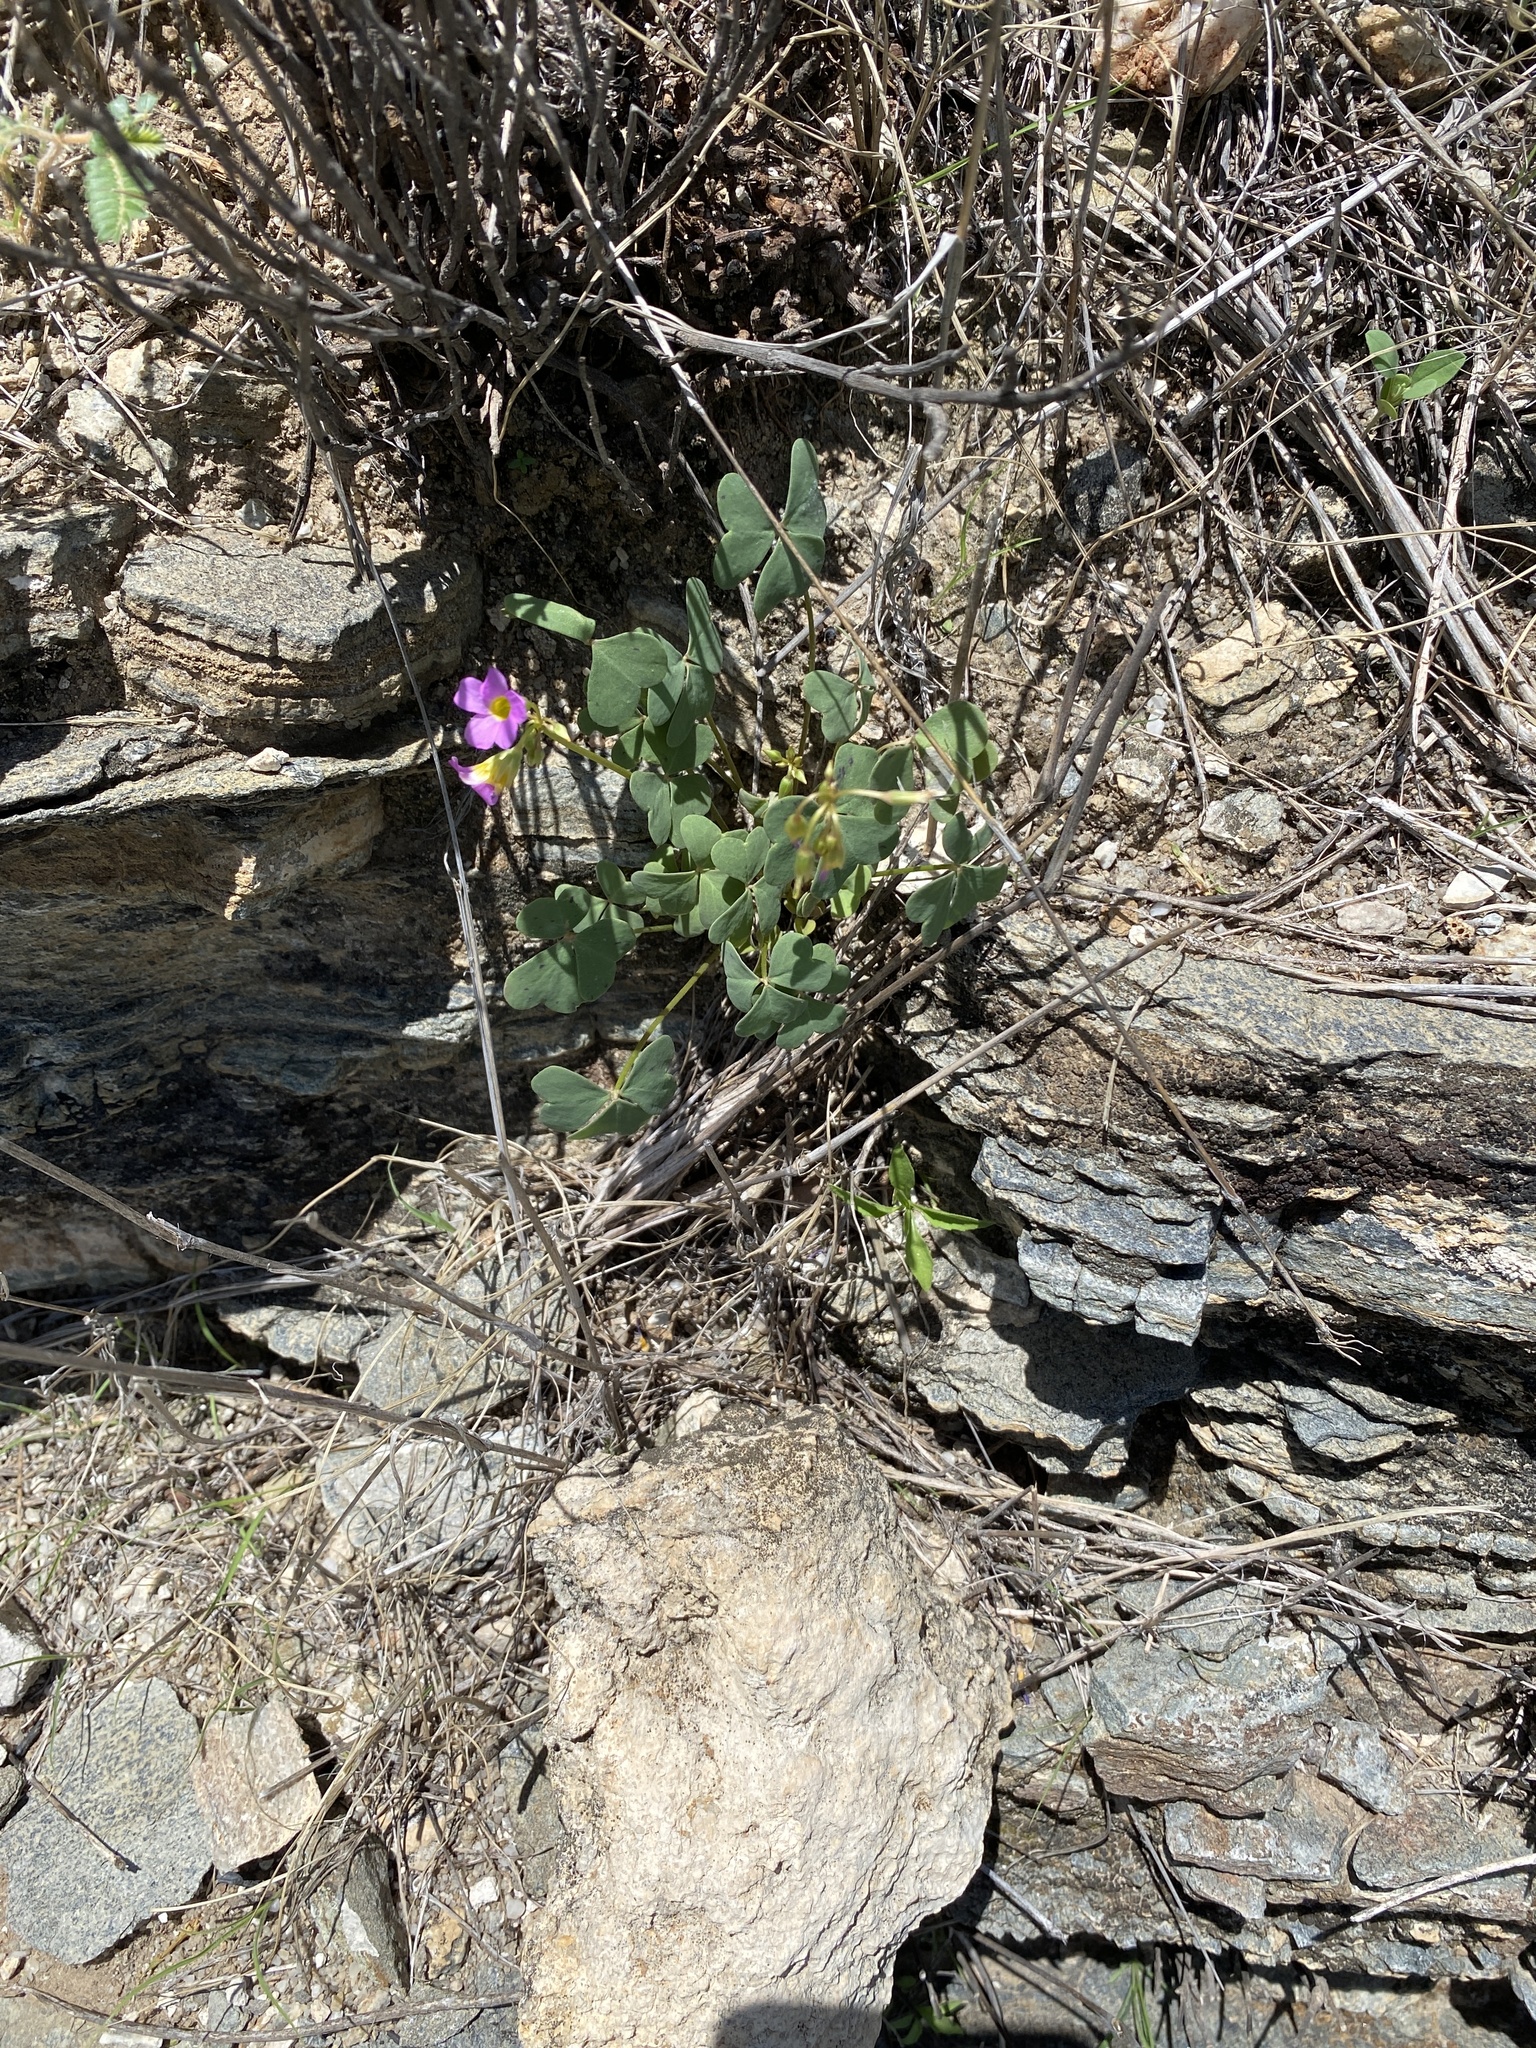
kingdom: Plantae
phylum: Tracheophyta
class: Magnoliopsida
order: Oxalidales
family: Oxalidaceae
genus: Oxalis
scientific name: Oxalis purpurascens
